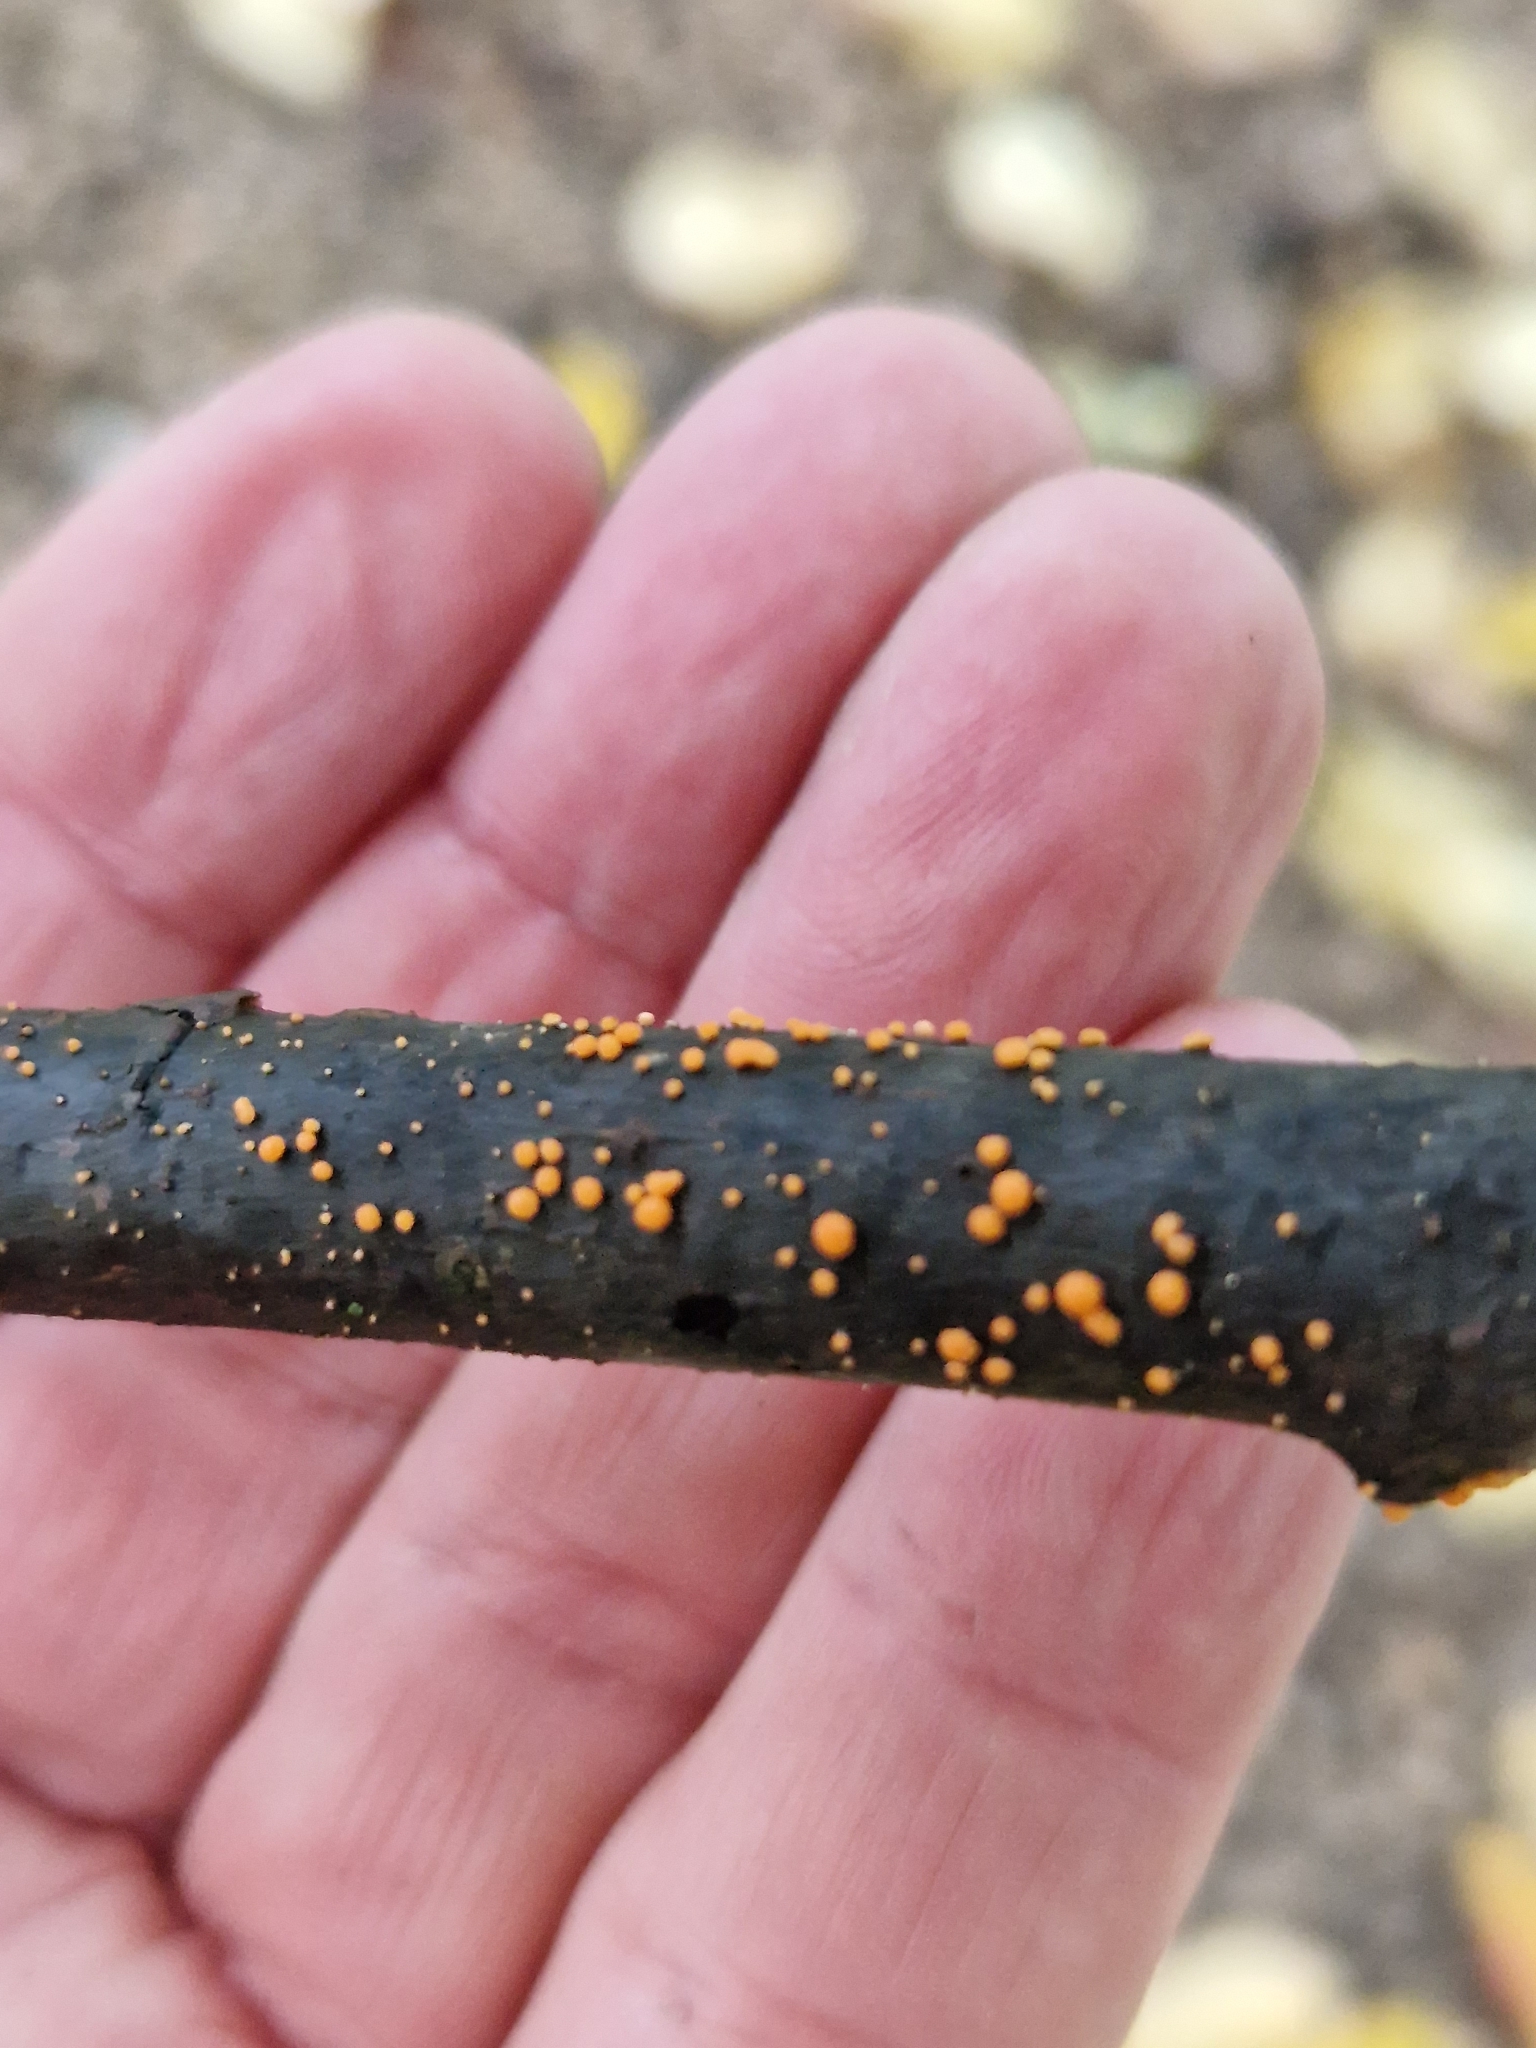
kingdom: Fungi
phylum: Ascomycota
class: Sordariomycetes
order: Hypocreales
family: Nectriaceae
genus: Nectria
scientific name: Nectria cinnabarina
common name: Coral spot
